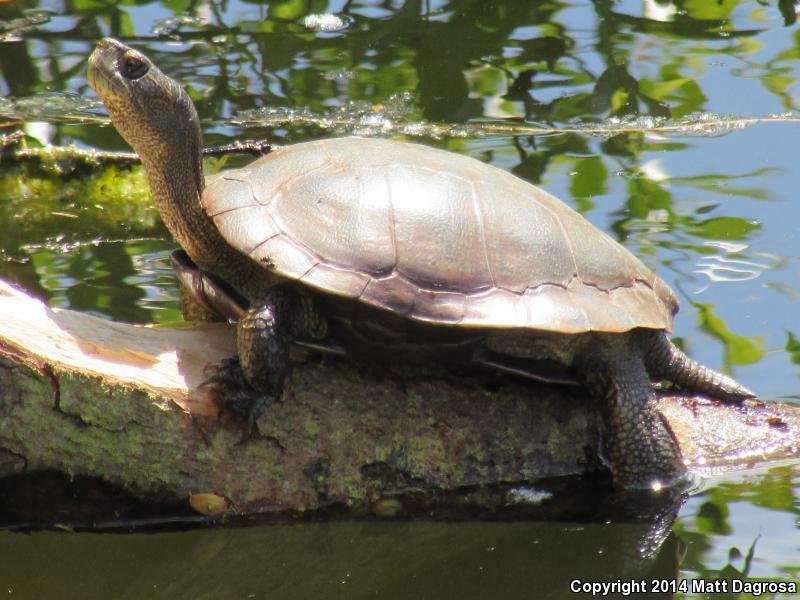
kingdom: Animalia
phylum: Chordata
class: Testudines
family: Emydidae
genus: Actinemys
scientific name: Actinemys marmorata
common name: Western pond turtle
